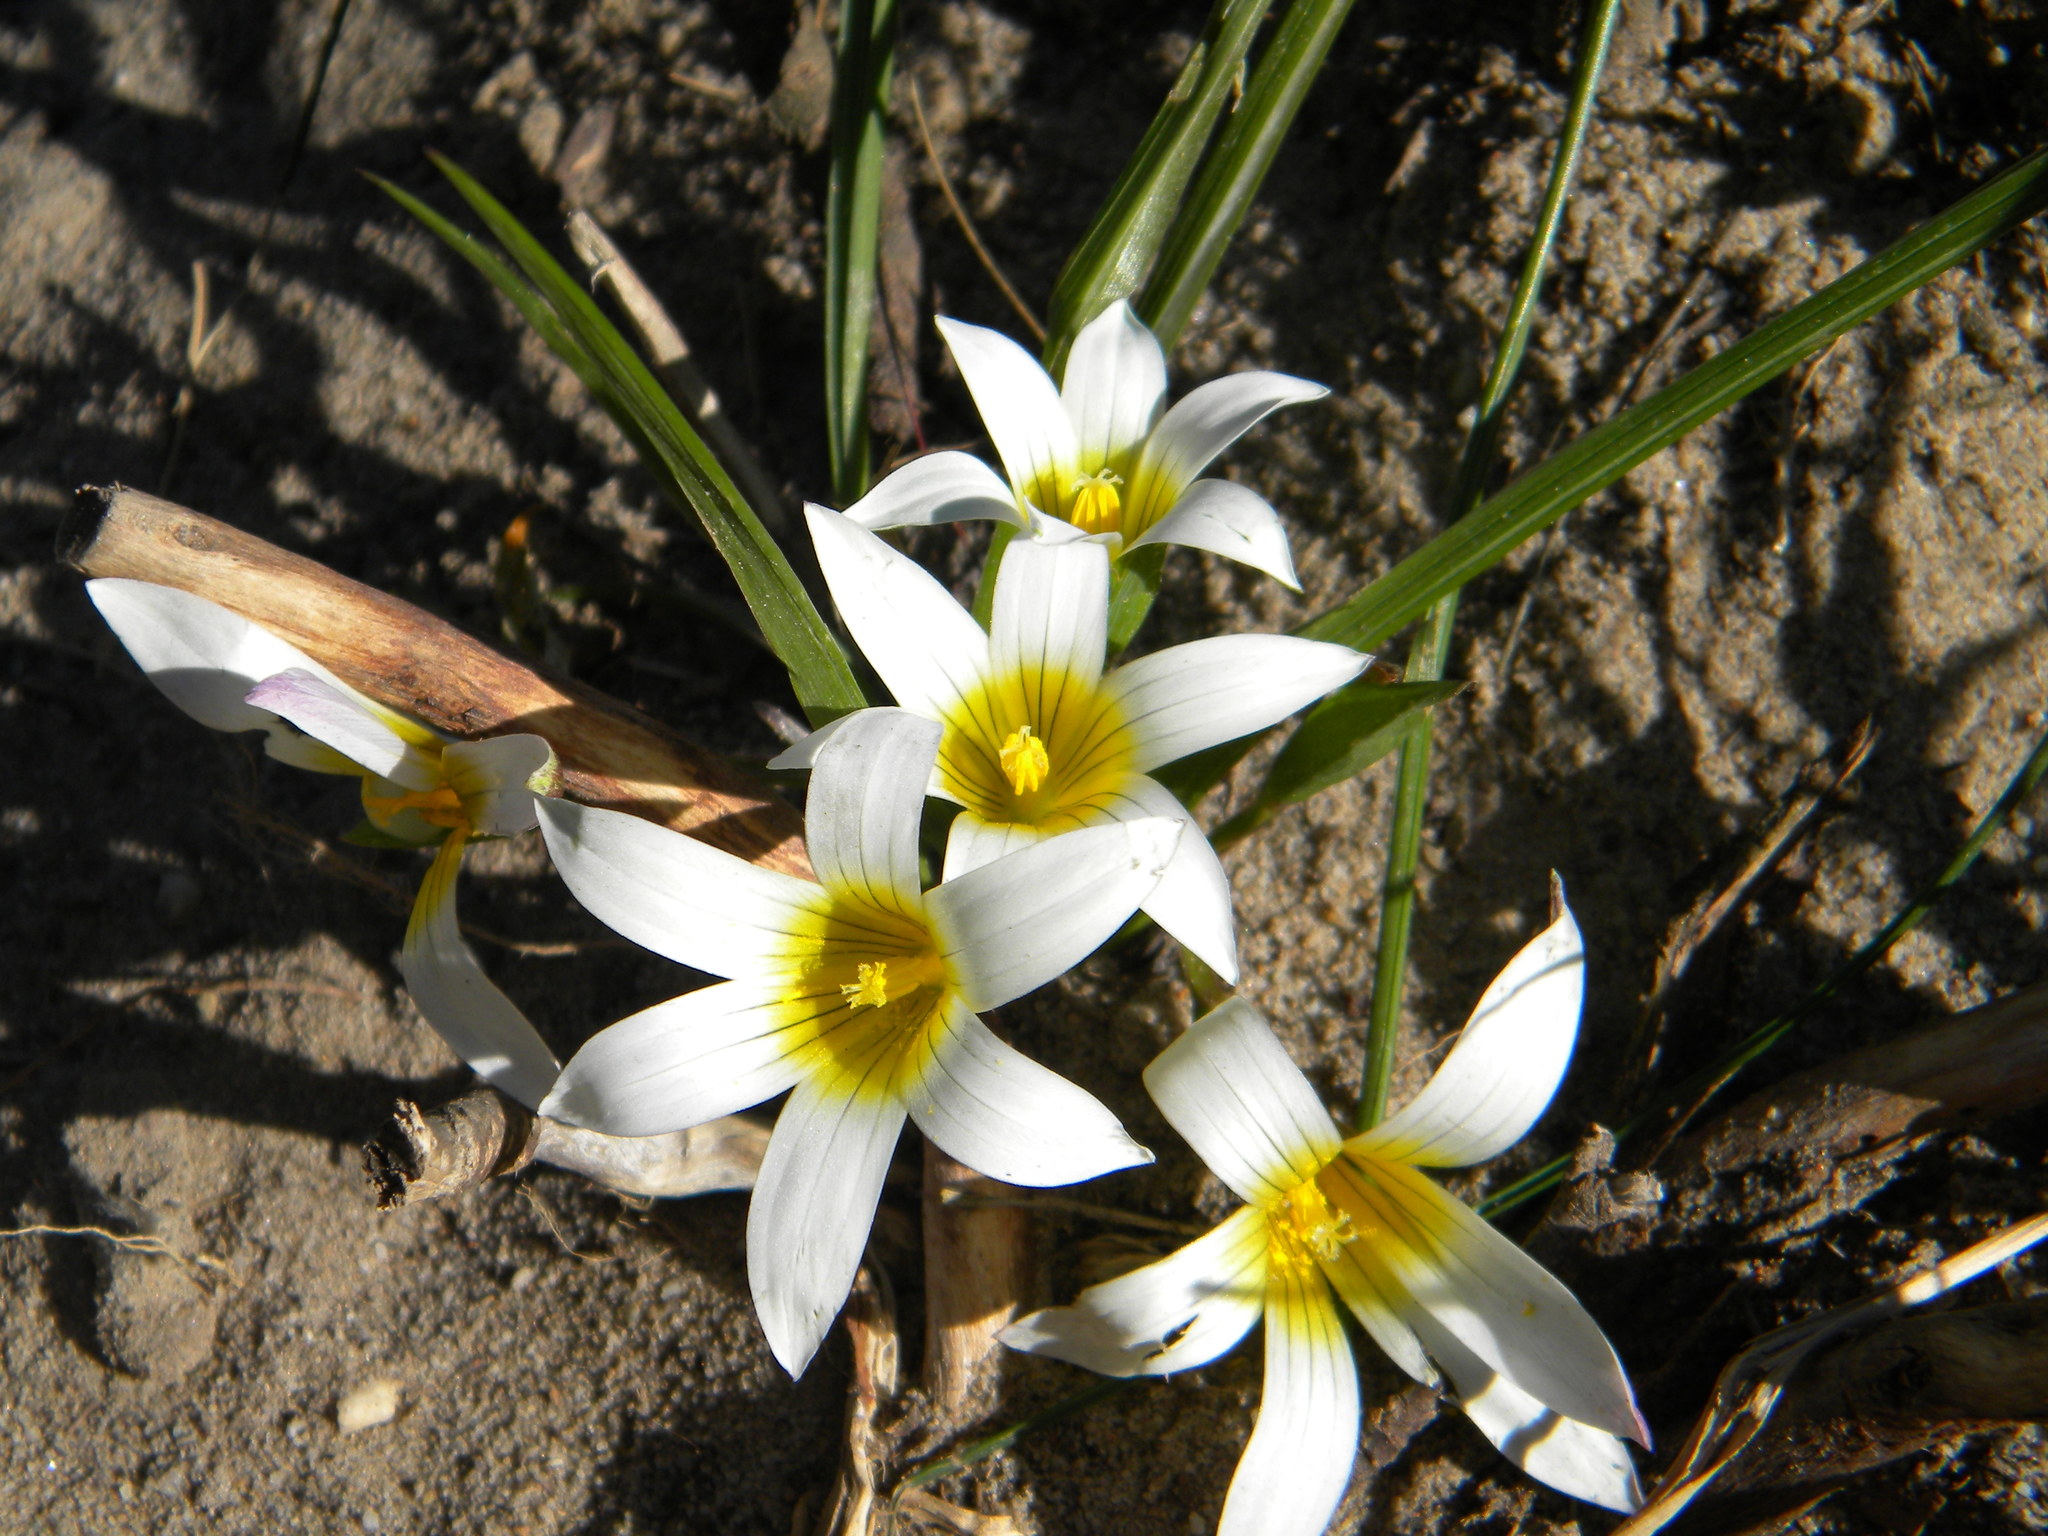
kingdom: Plantae
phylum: Tracheophyta
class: Liliopsida
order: Asparagales
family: Iridaceae
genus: Romulea
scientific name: Romulea flava
